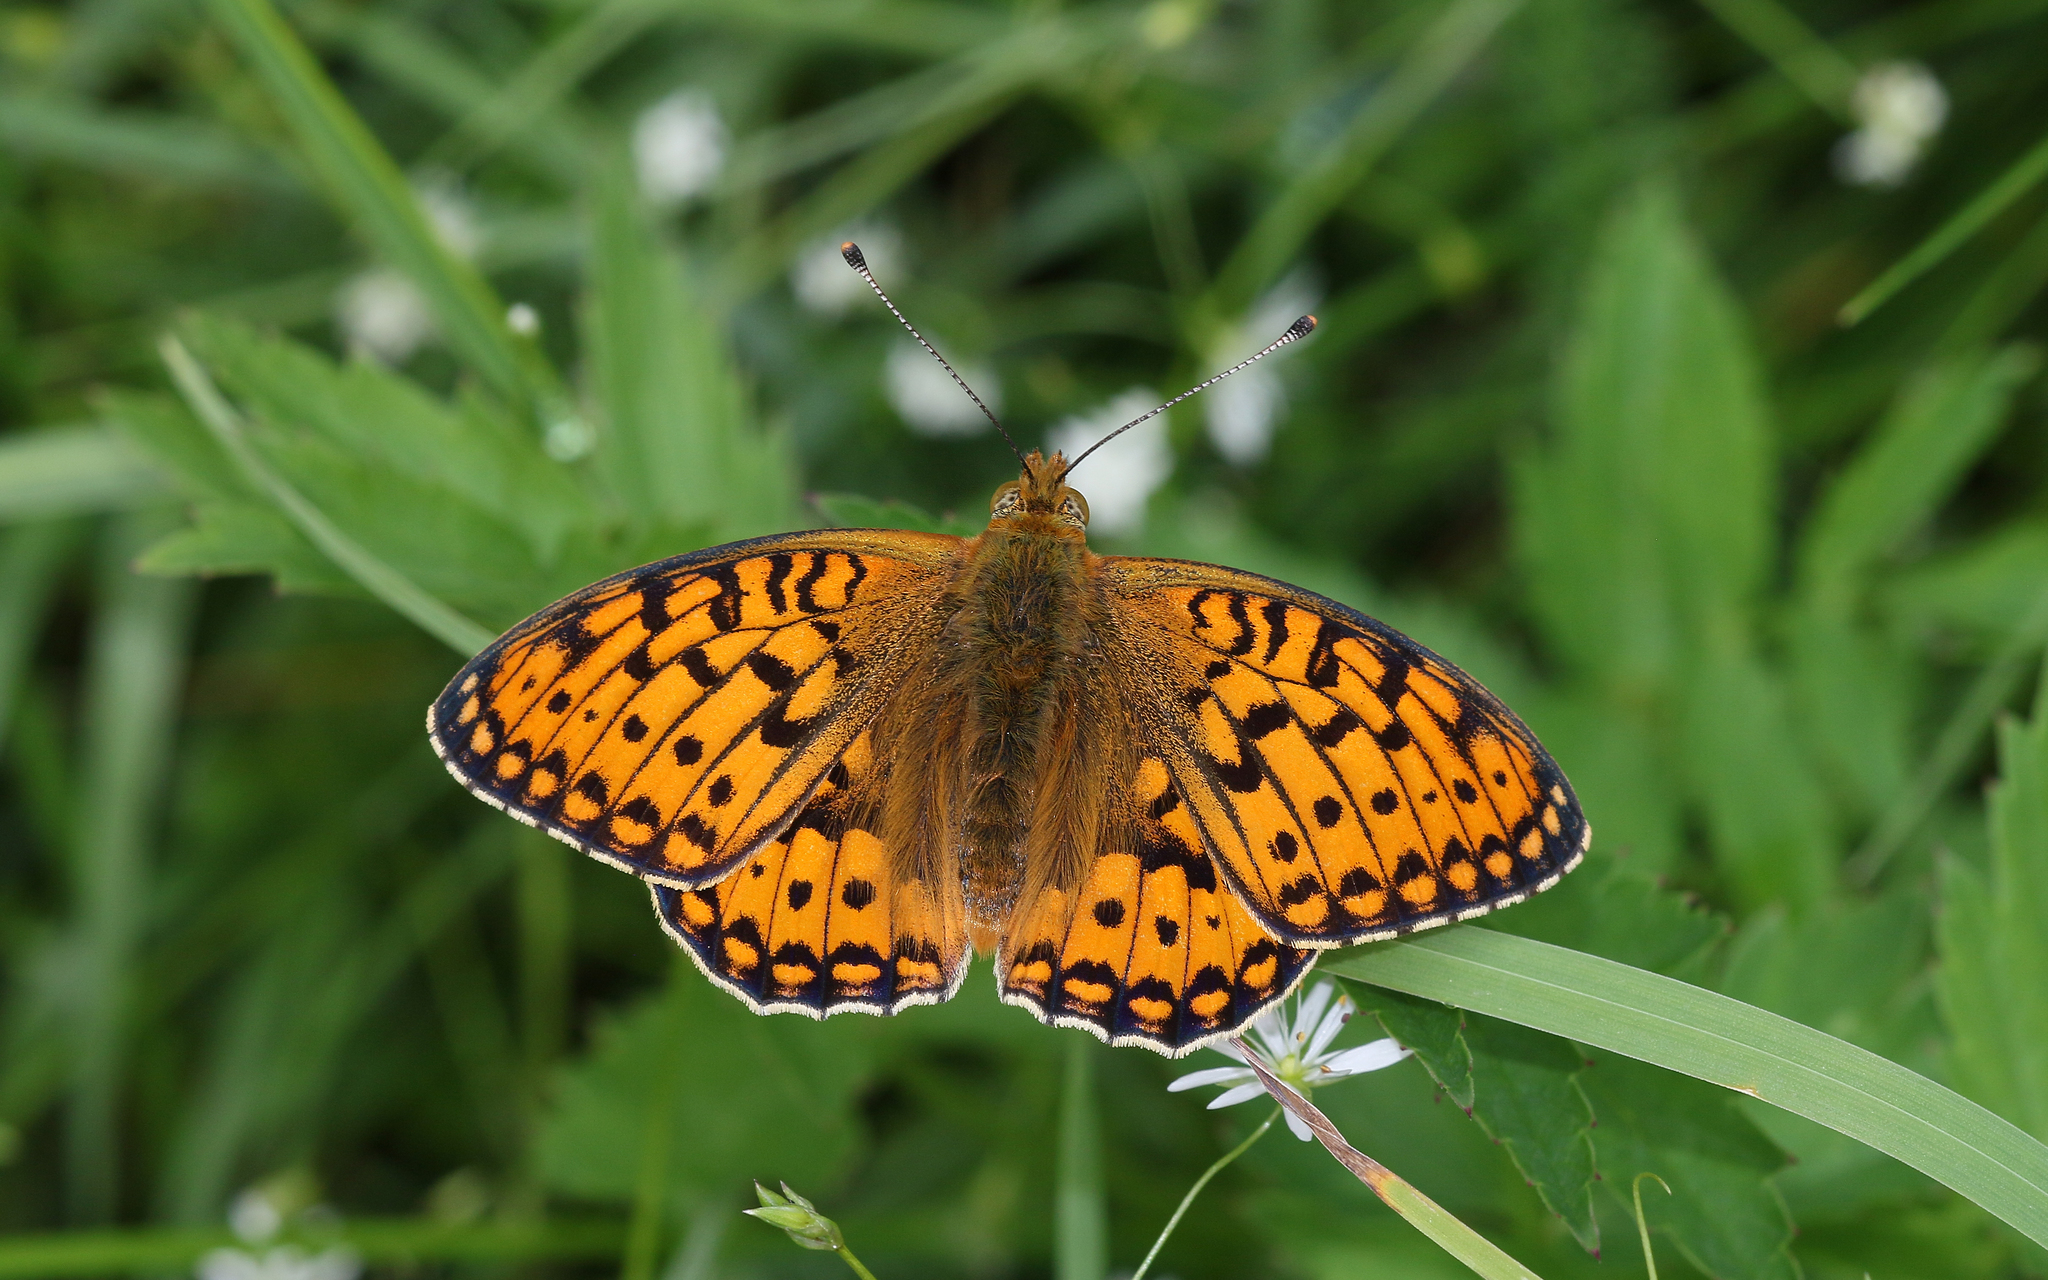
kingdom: Animalia
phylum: Arthropoda
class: Insecta
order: Lepidoptera
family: Nymphalidae
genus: Speyeria
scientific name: Speyeria aglaja
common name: Dark green fritillary
